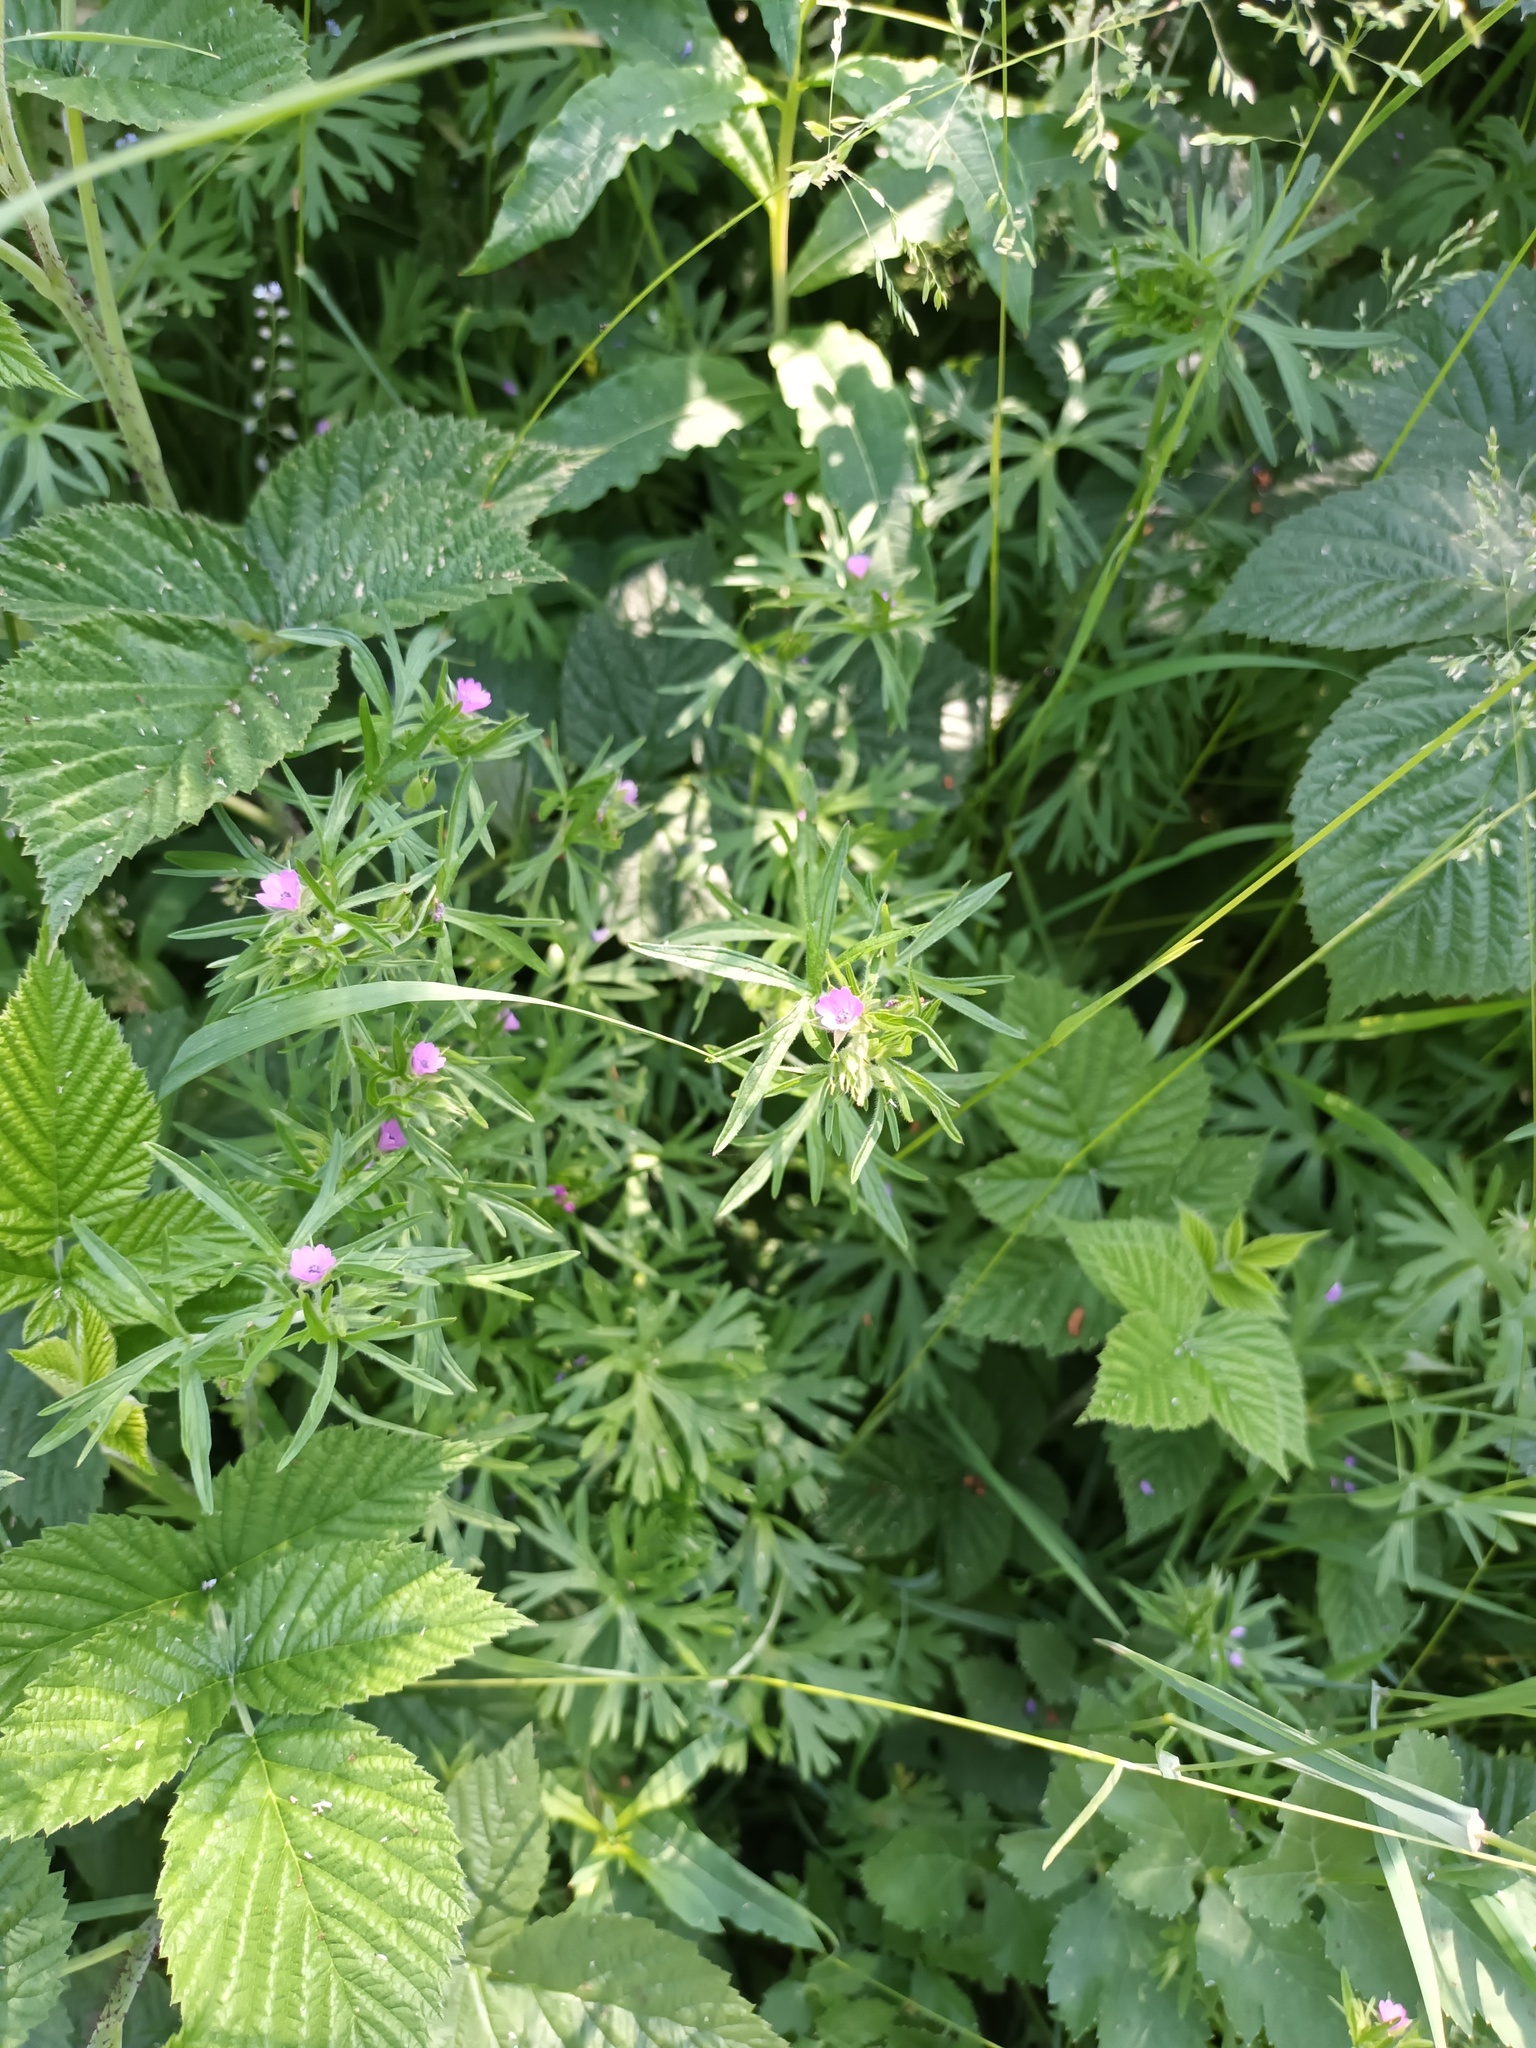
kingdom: Plantae
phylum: Tracheophyta
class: Magnoliopsida
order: Geraniales
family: Geraniaceae
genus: Geranium
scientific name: Geranium dissectum
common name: Cut-leaved crane's-bill
